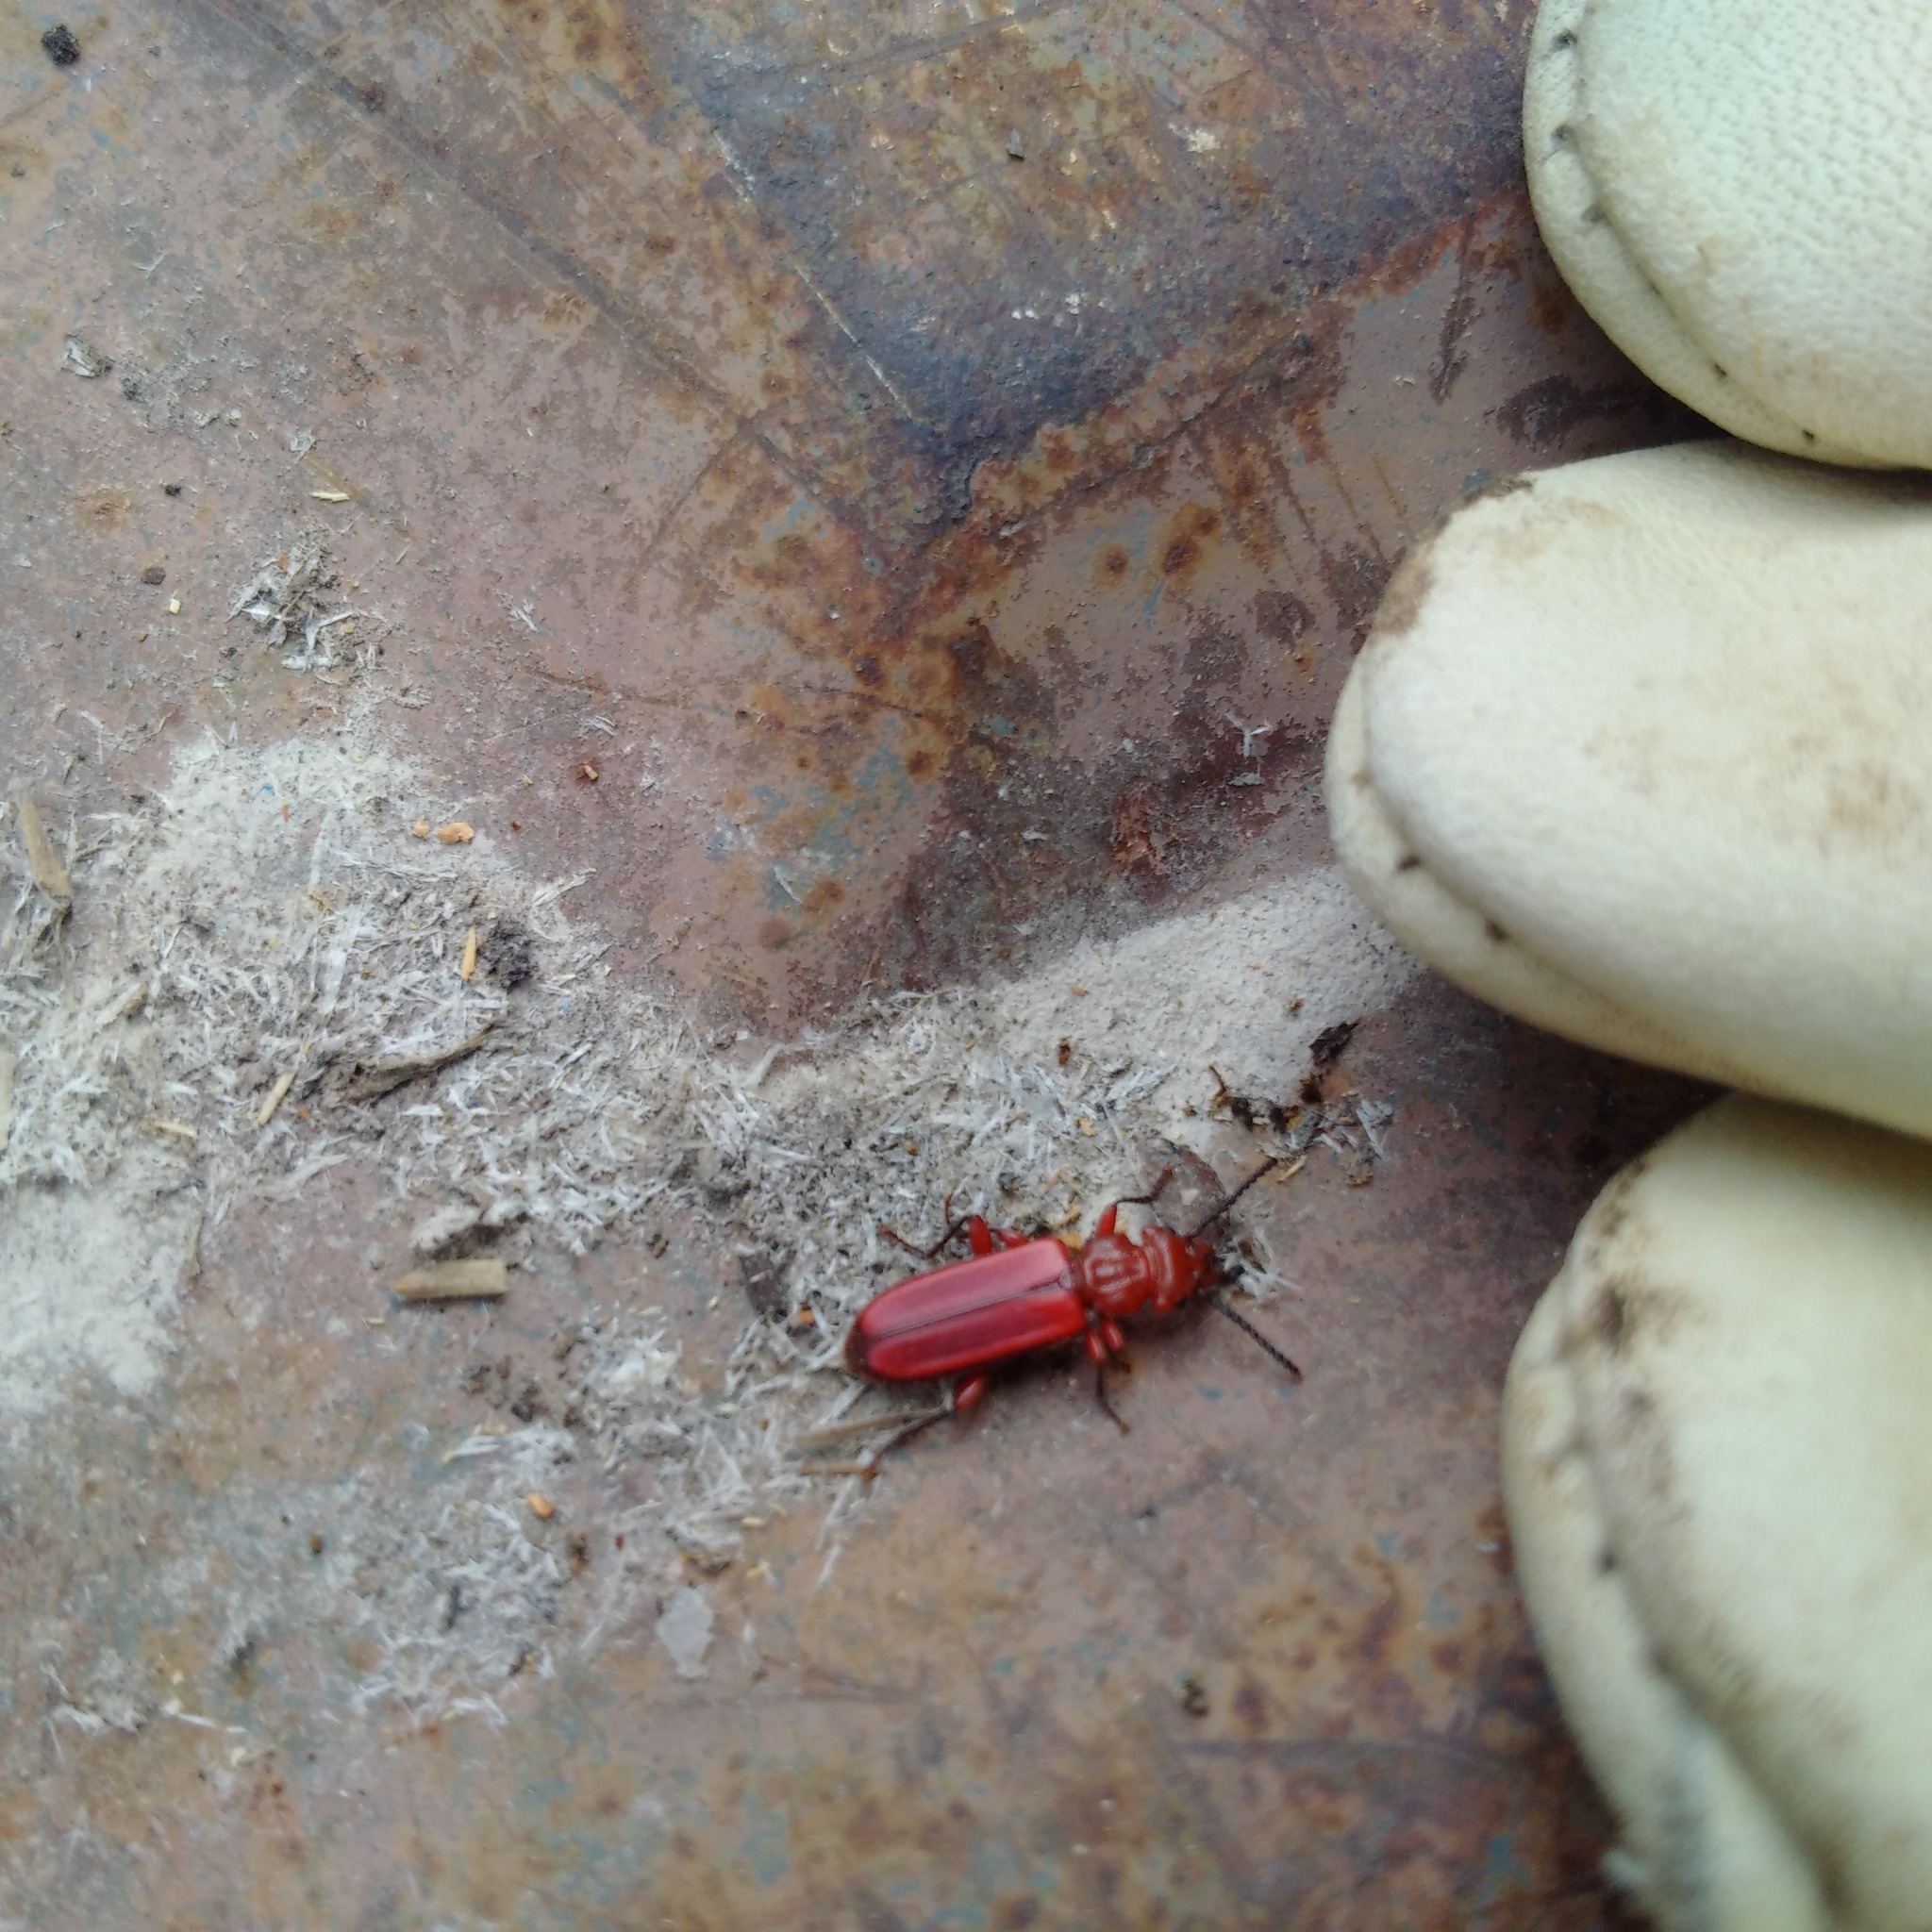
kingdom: Animalia
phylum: Arthropoda
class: Insecta
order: Coleoptera
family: Cucujidae
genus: Cucujus
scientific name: Cucujus clavipes
